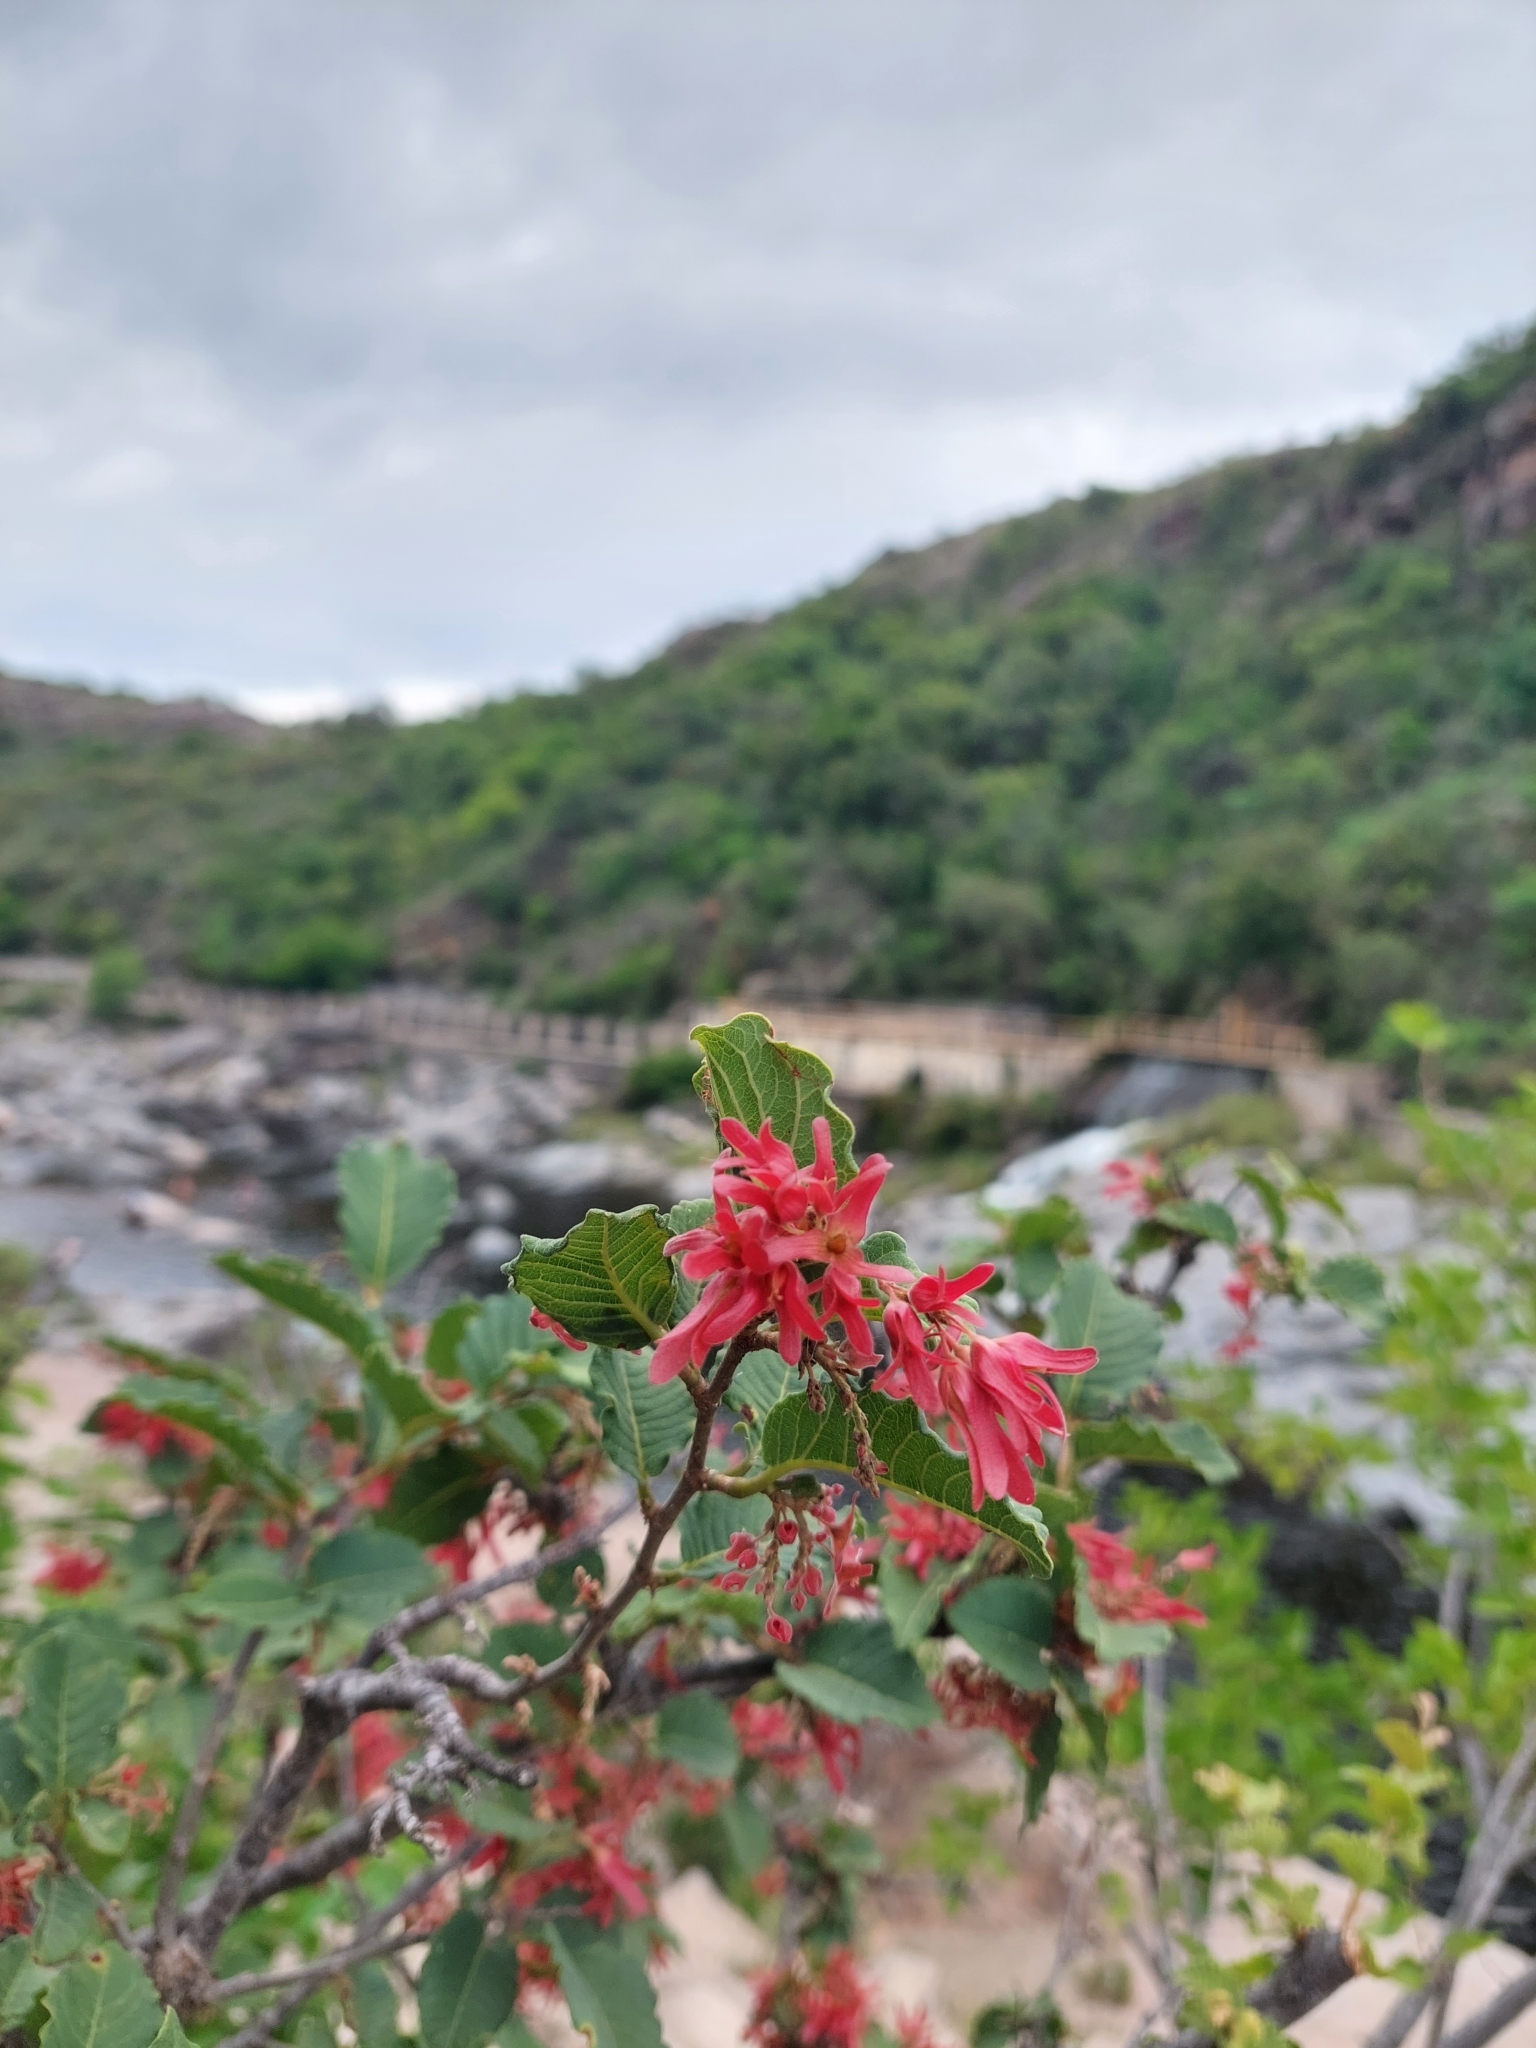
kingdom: Plantae
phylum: Tracheophyta
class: Magnoliopsida
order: Caryophyllales
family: Polygonaceae
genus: Ruprechtia
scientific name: Ruprechtia apetala
